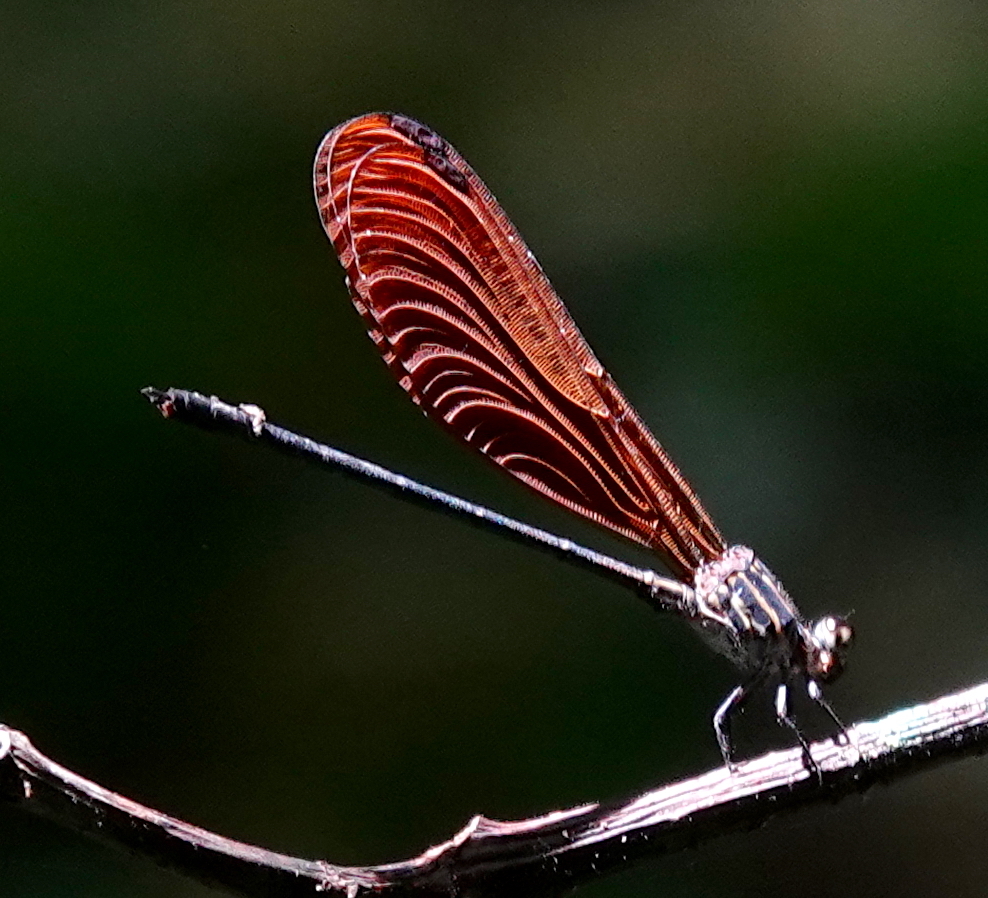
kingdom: Animalia
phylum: Arthropoda
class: Insecta
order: Odonata
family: Polythoridae
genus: Polythore
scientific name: Polythore concinna
